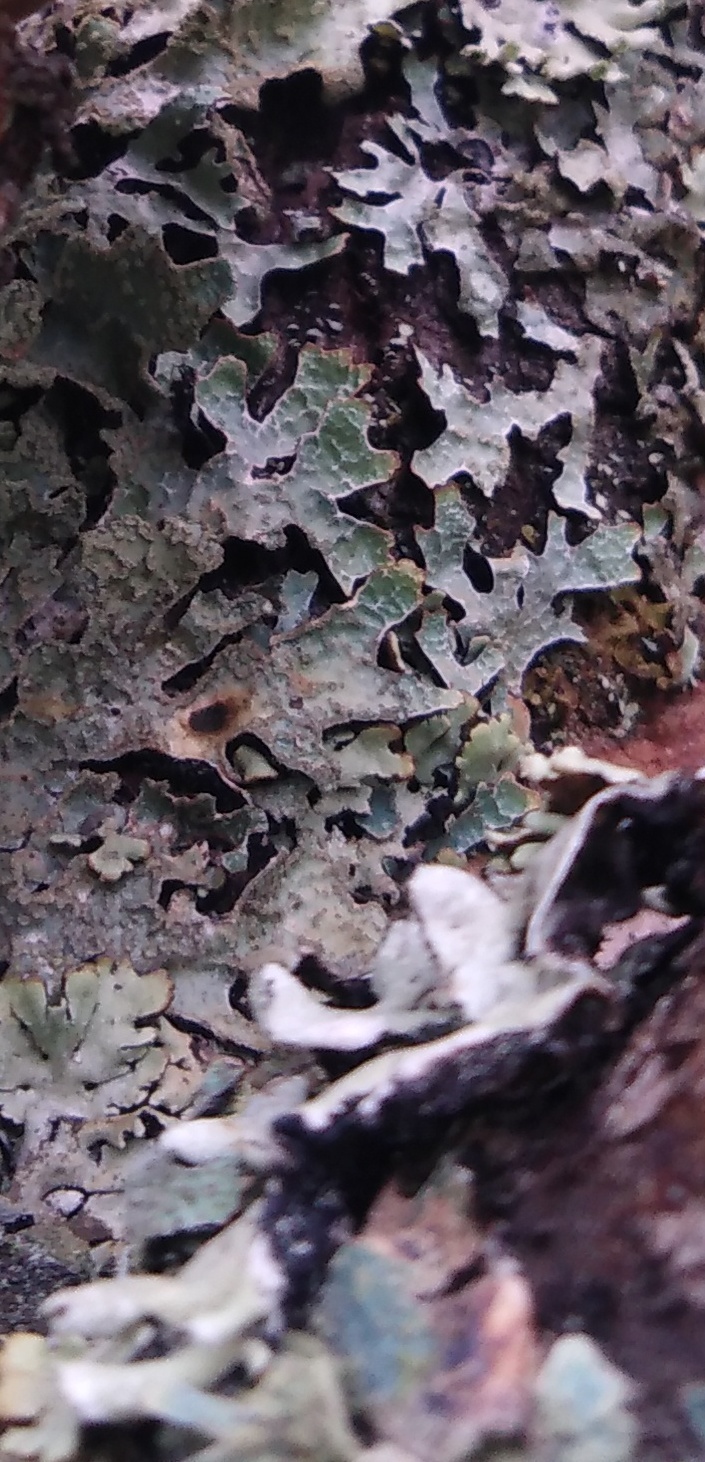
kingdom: Fungi
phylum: Ascomycota
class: Lecanoromycetes
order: Lecanorales
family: Parmeliaceae
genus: Parmelia
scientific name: Parmelia sulcata
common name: Netted shield lichen
